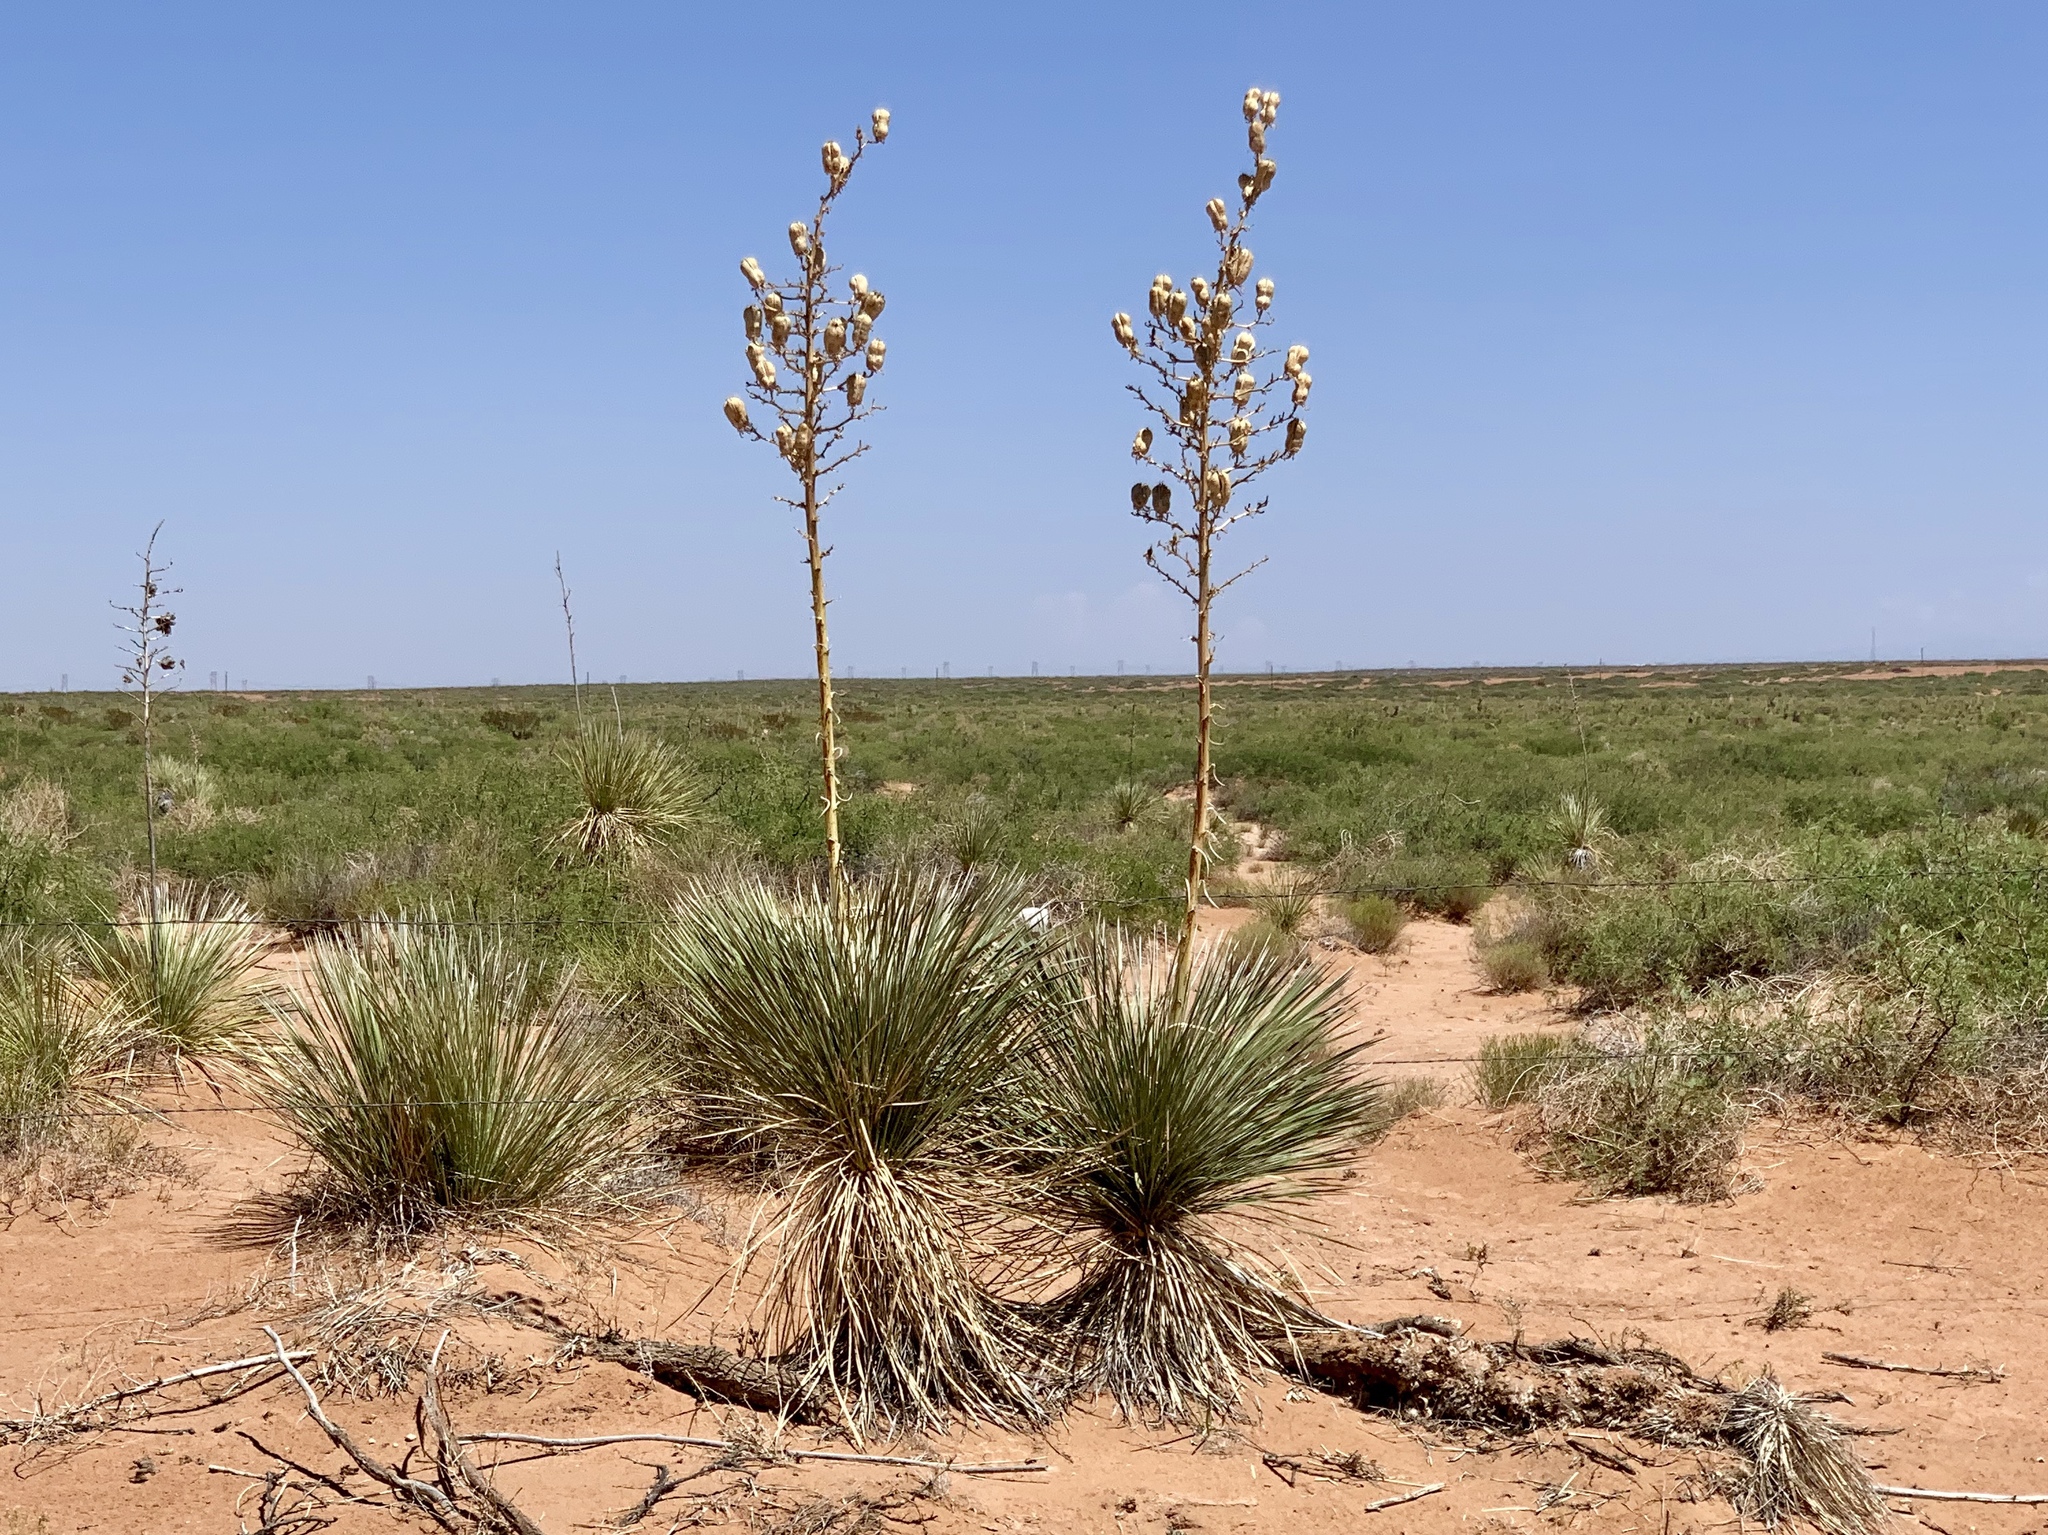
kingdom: Plantae
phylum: Tracheophyta
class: Liliopsida
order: Asparagales
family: Asparagaceae
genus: Yucca
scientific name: Yucca elata
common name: Palmella
